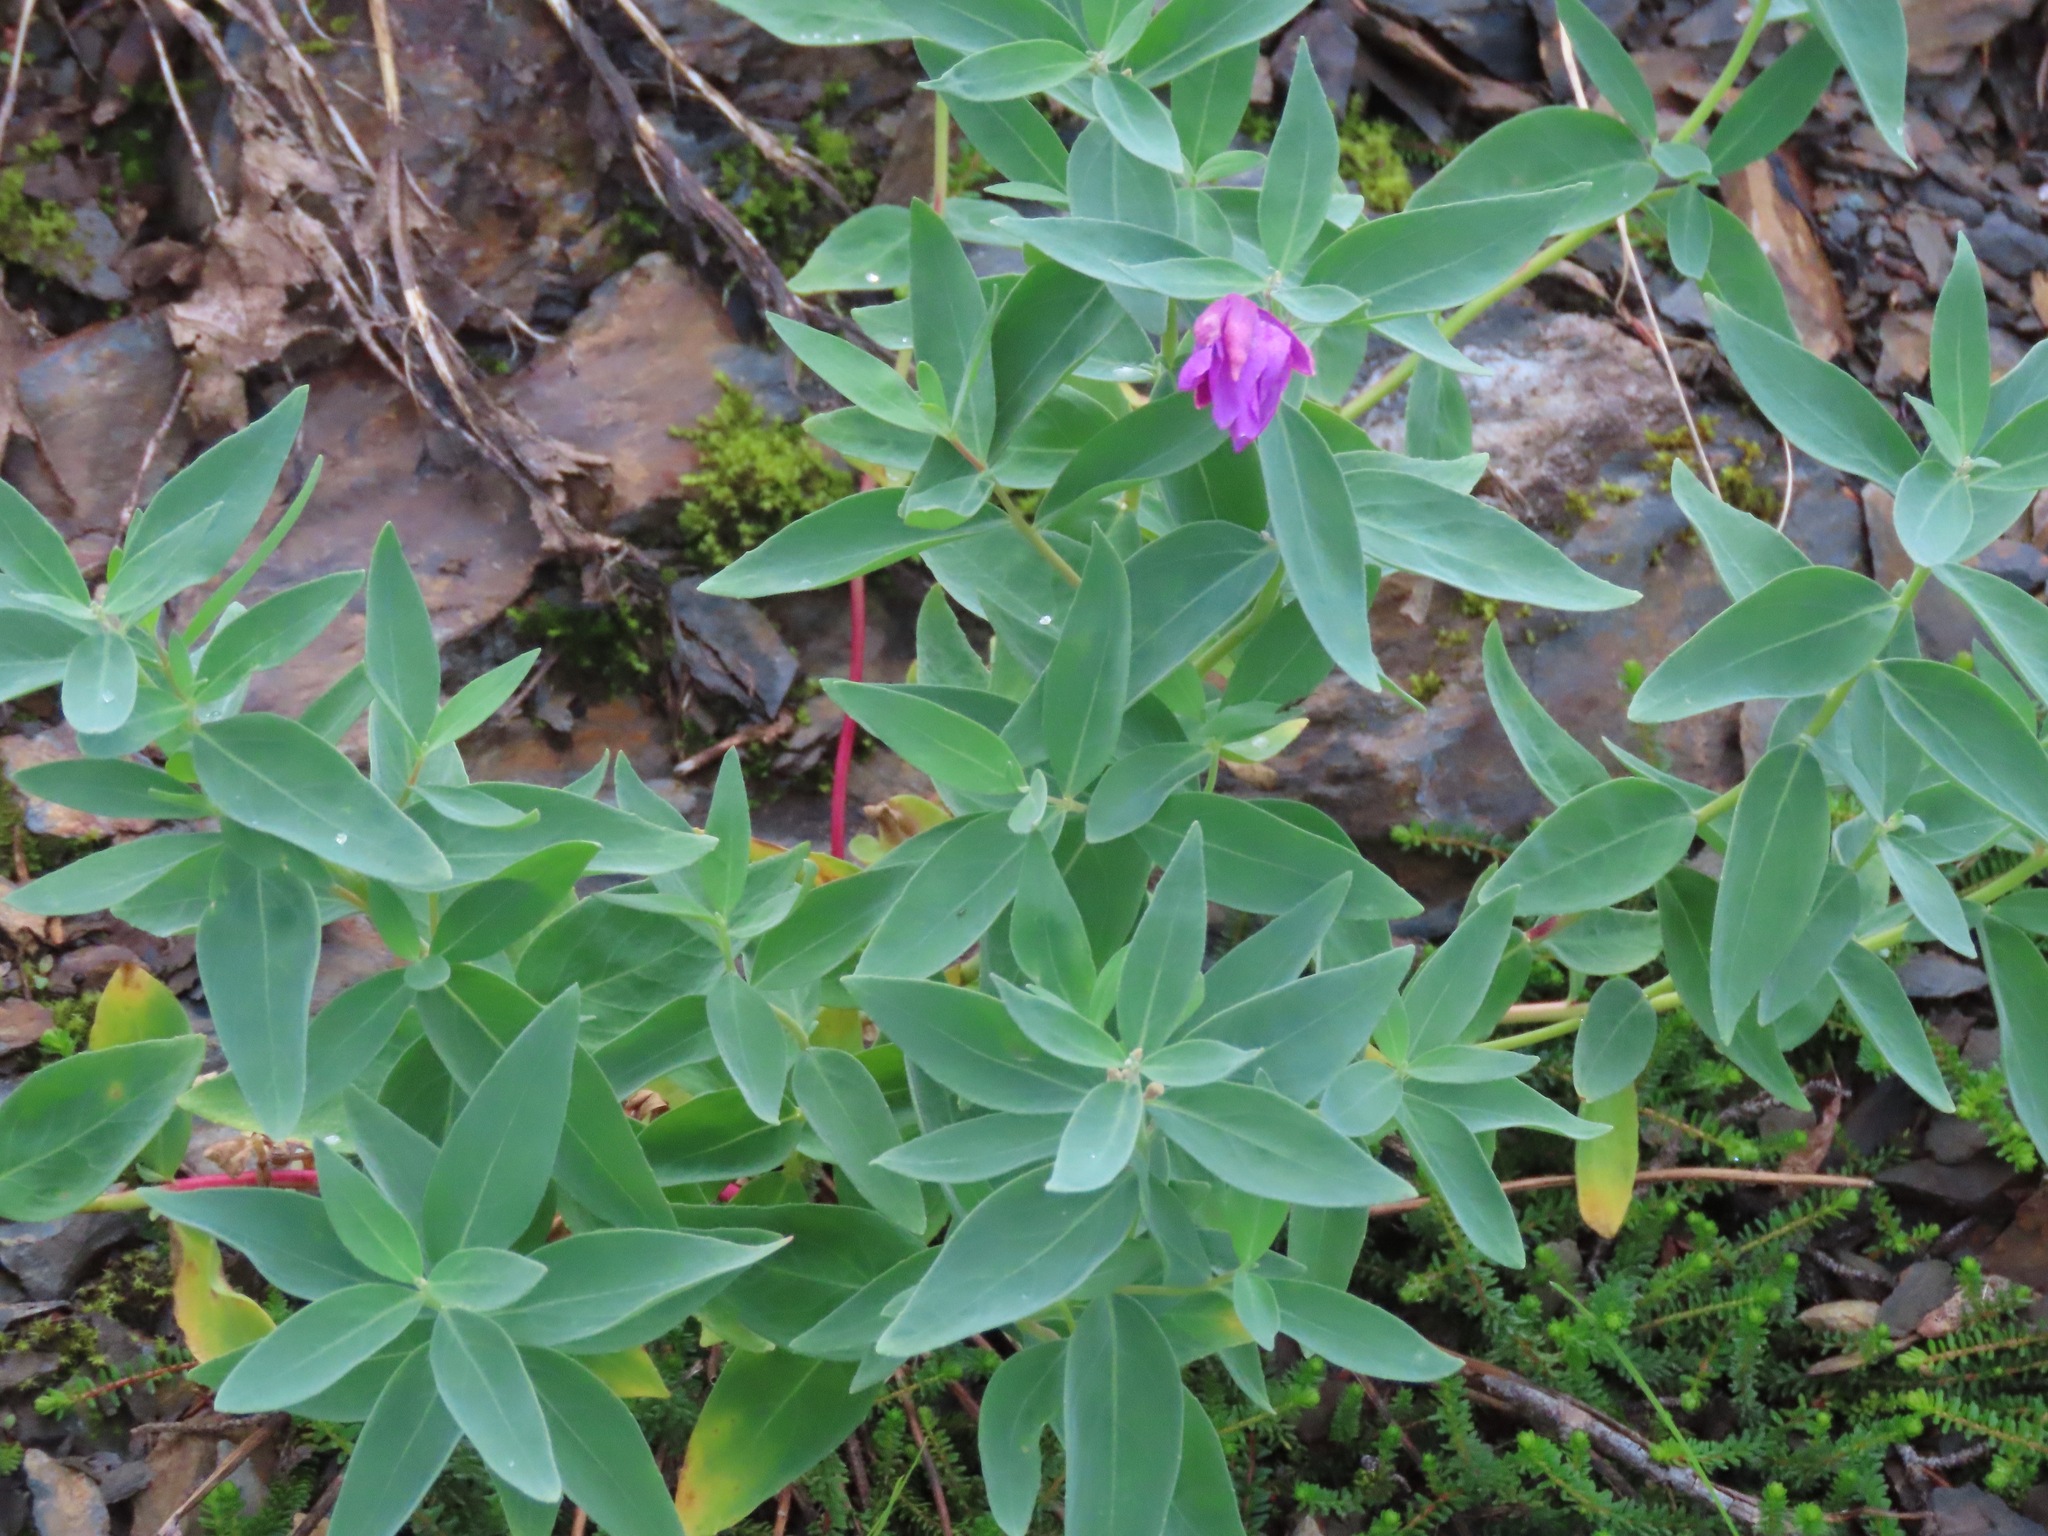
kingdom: Plantae
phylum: Tracheophyta
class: Magnoliopsida
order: Myrtales
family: Onagraceae
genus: Chamaenerion
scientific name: Chamaenerion latifolium
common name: Dwarf fireweed
